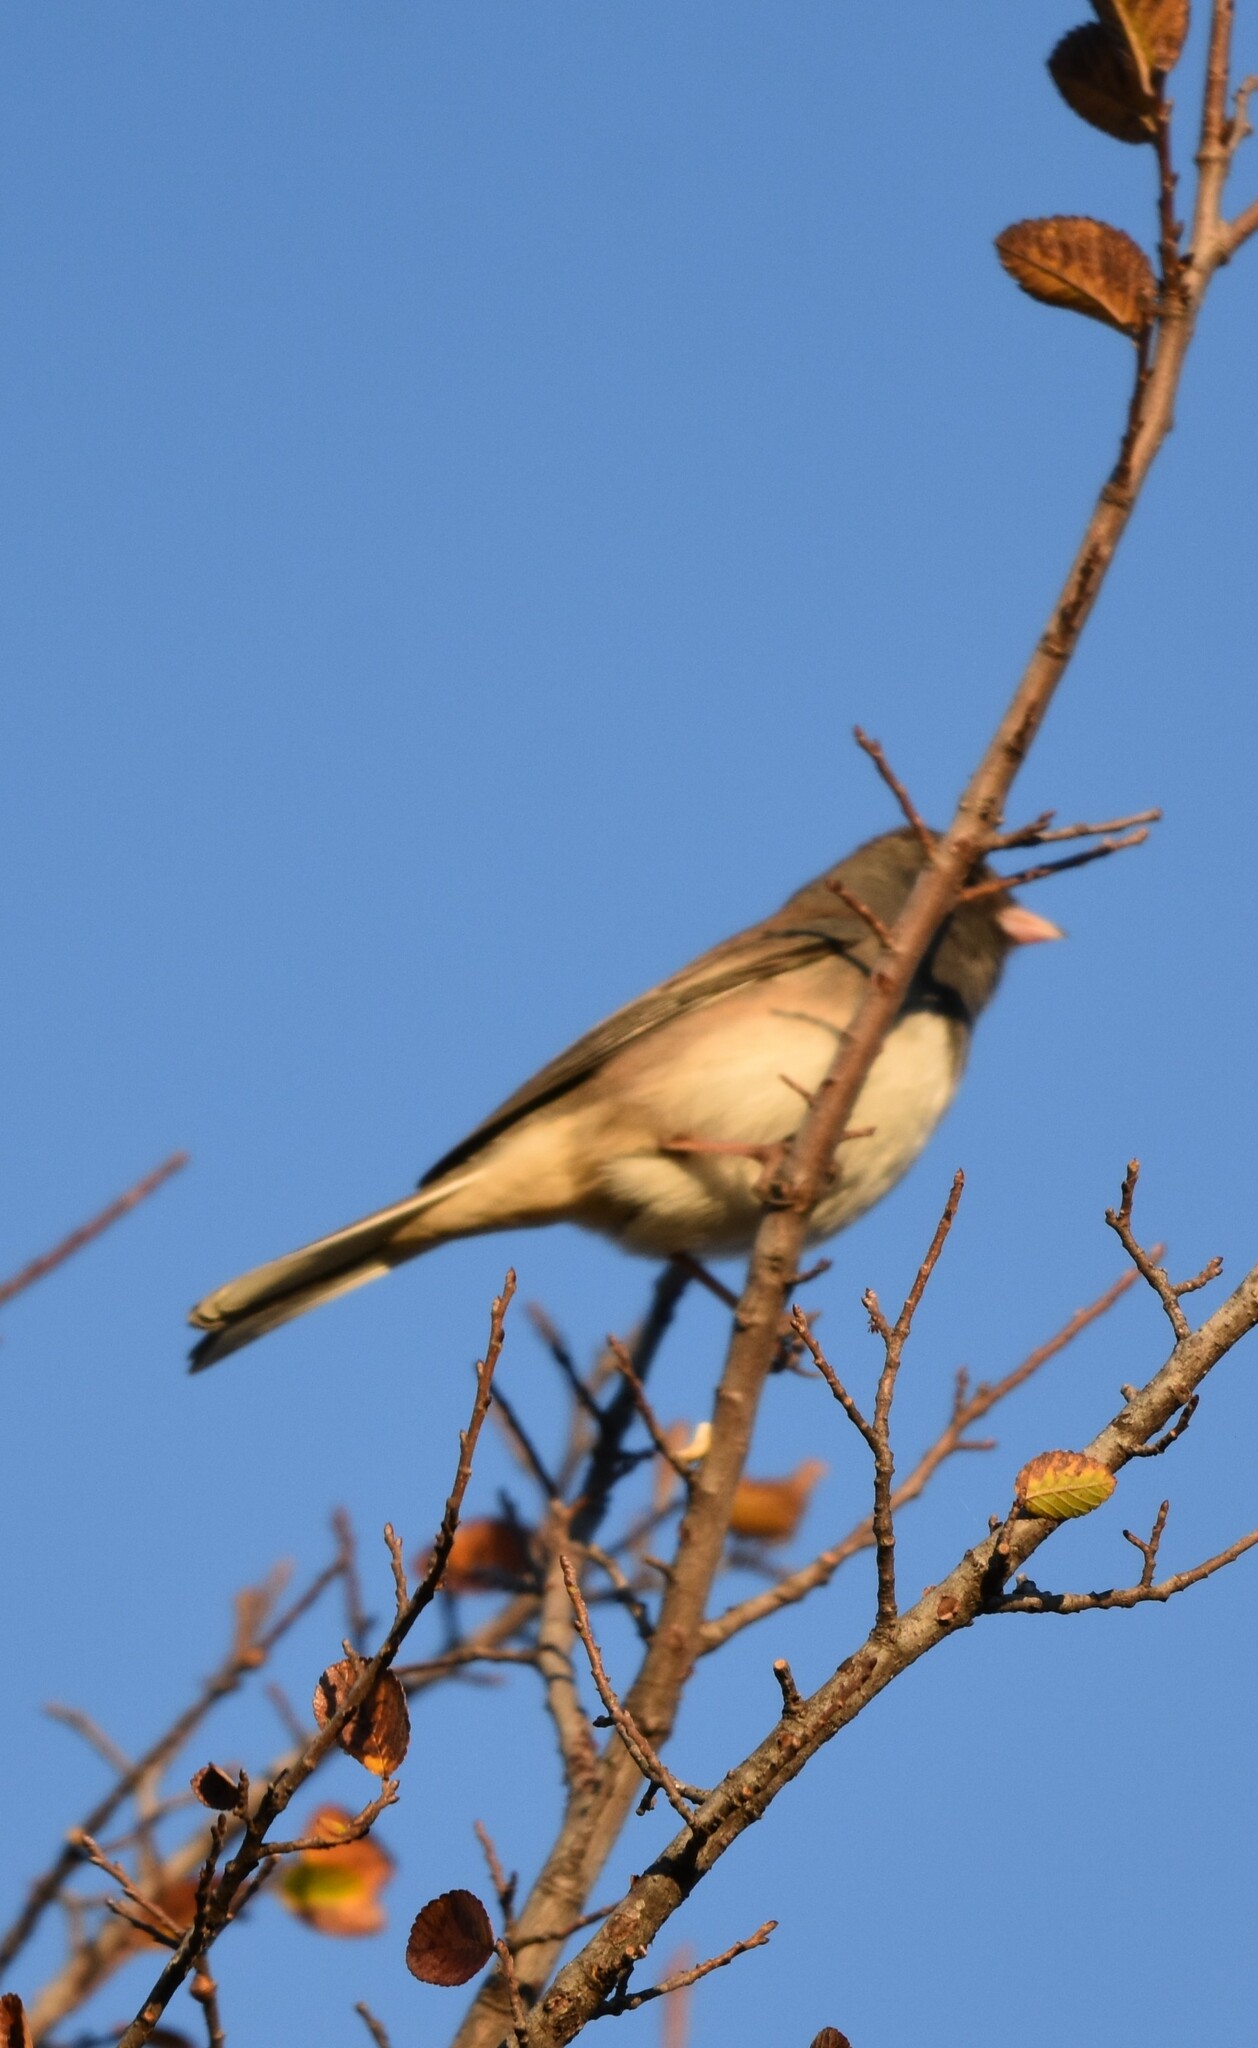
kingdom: Animalia
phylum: Chordata
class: Aves
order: Passeriformes
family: Passerellidae
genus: Junco
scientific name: Junco hyemalis
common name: Dark-eyed junco
